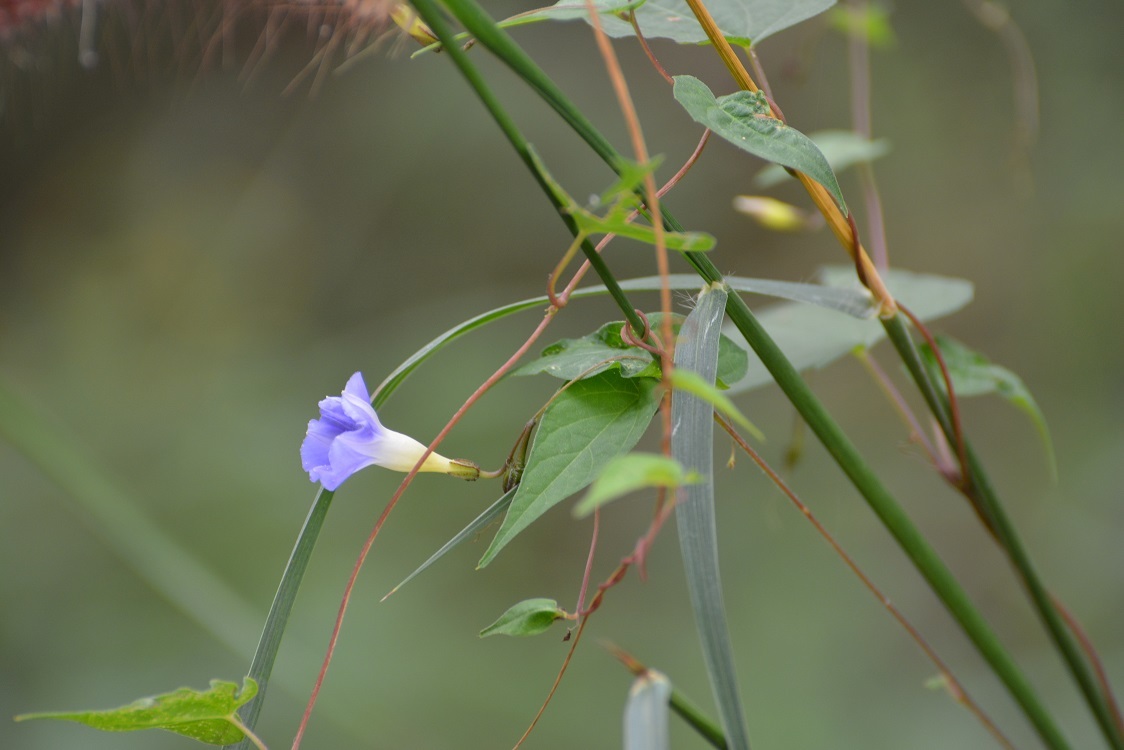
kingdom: Plantae
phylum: Tracheophyta
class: Magnoliopsida
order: Solanales
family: Convolvulaceae
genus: Ipomoea
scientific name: Ipomoea aristolochiifolia
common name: Aristolochia-leaved morning-glory
